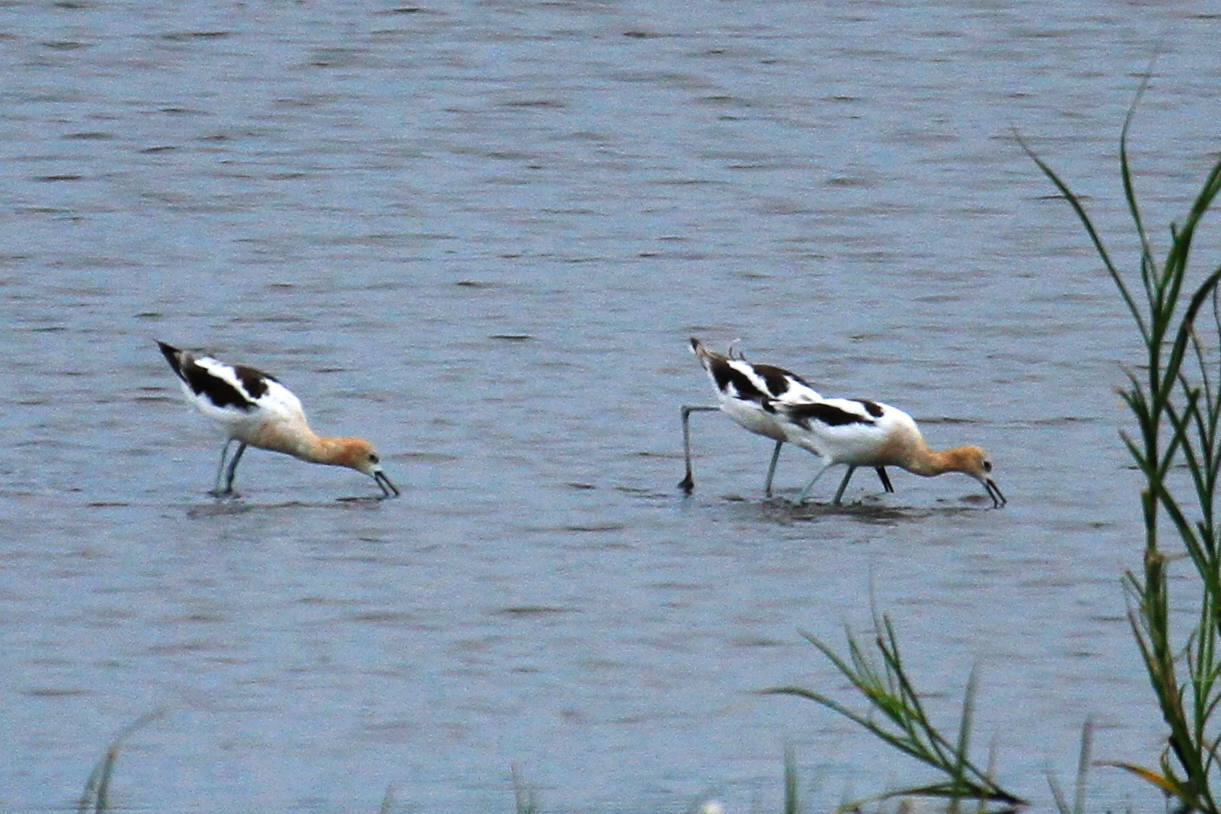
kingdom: Animalia
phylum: Chordata
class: Aves
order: Charadriiformes
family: Recurvirostridae
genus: Recurvirostra
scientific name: Recurvirostra americana
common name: American avocet
